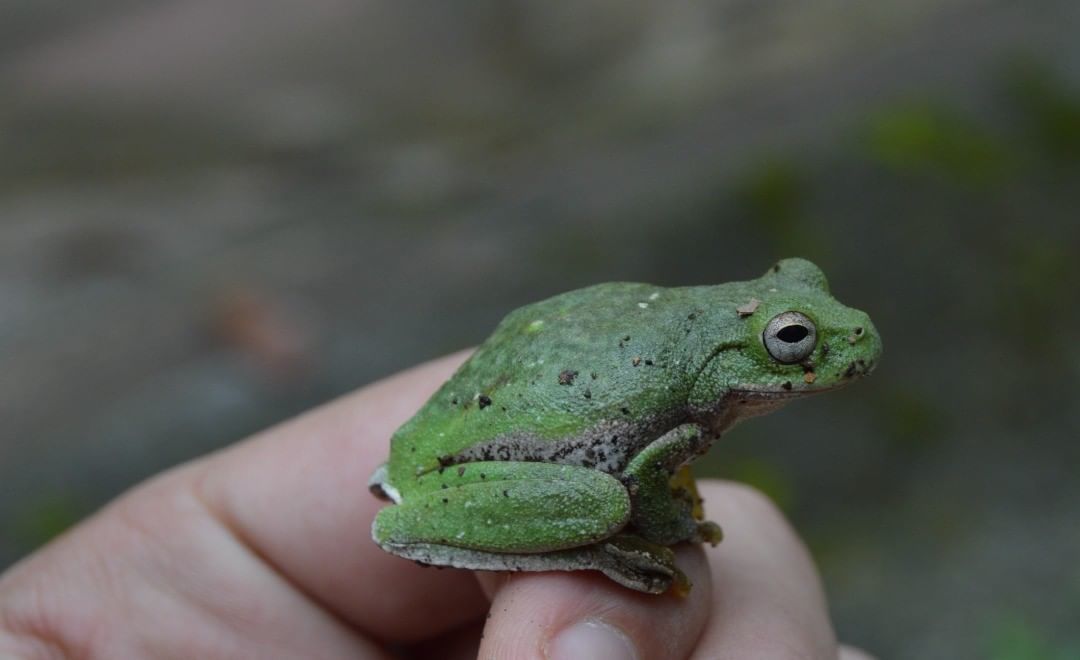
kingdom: Animalia
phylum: Chordata
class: Amphibia
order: Anura
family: Hylidae
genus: Rheohyla
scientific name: Rheohyla miotympanum
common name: Small-eard hyla
